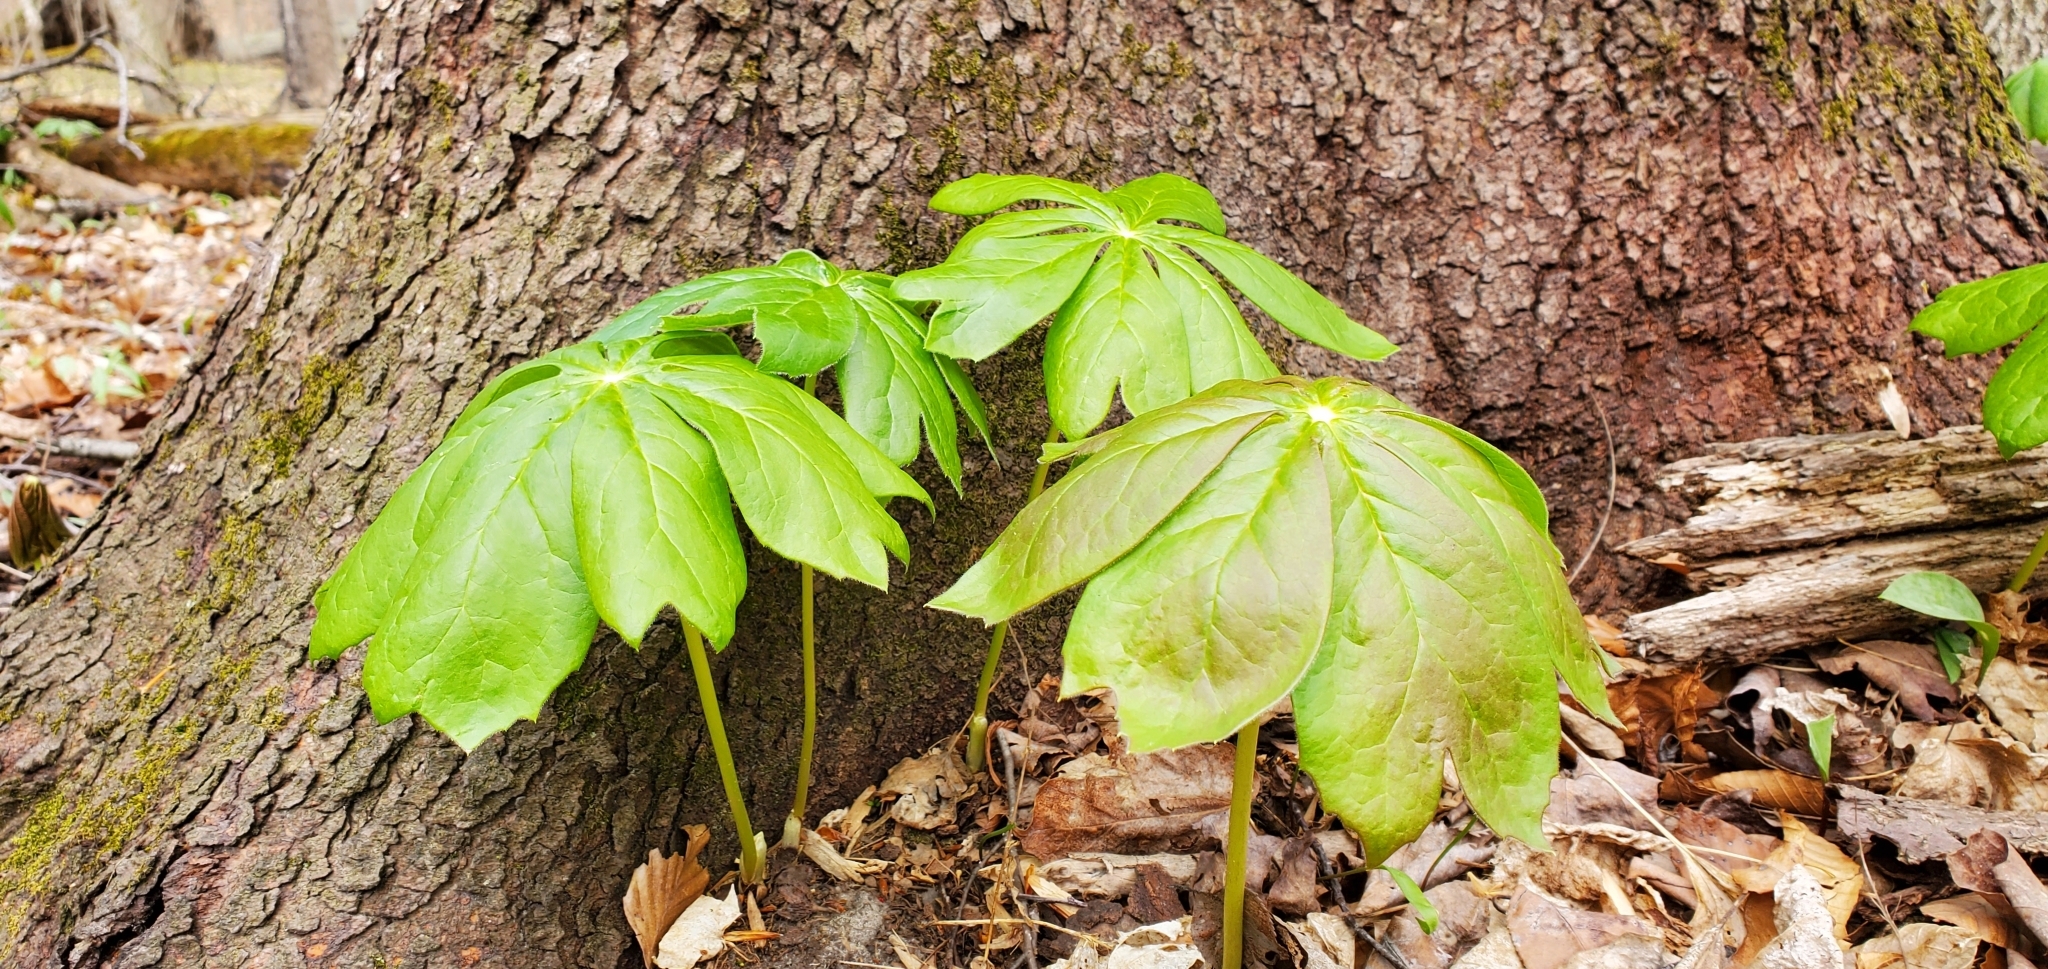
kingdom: Plantae
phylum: Tracheophyta
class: Magnoliopsida
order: Ranunculales
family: Berberidaceae
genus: Podophyllum
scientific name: Podophyllum peltatum
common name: Wild mandrake
